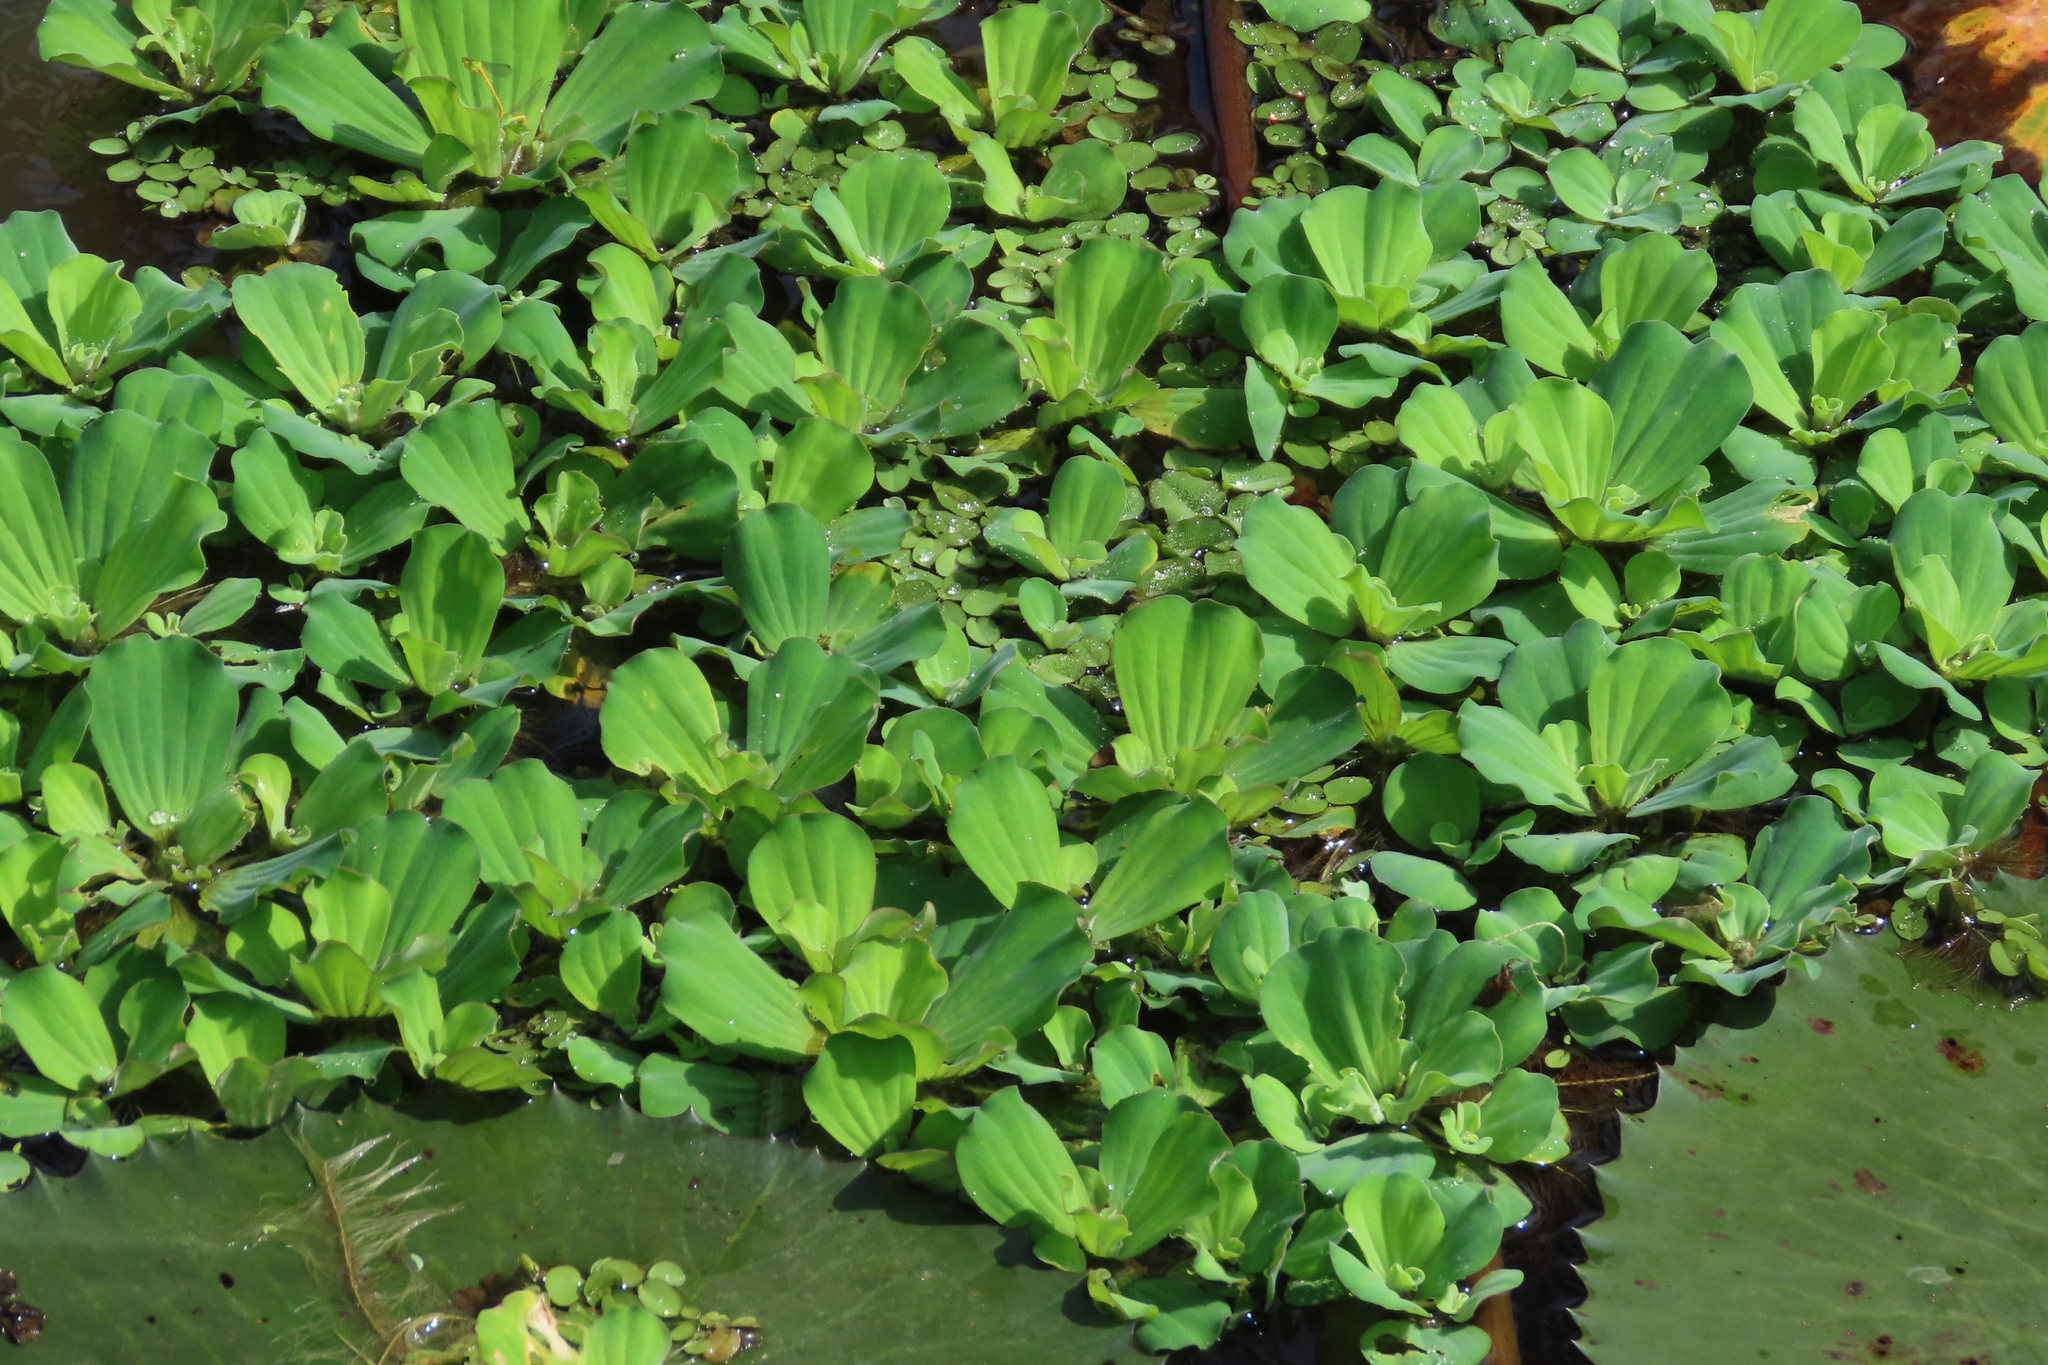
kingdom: Plantae
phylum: Tracheophyta
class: Liliopsida
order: Alismatales
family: Araceae
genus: Pistia
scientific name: Pistia stratiotes
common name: Water lettuce
